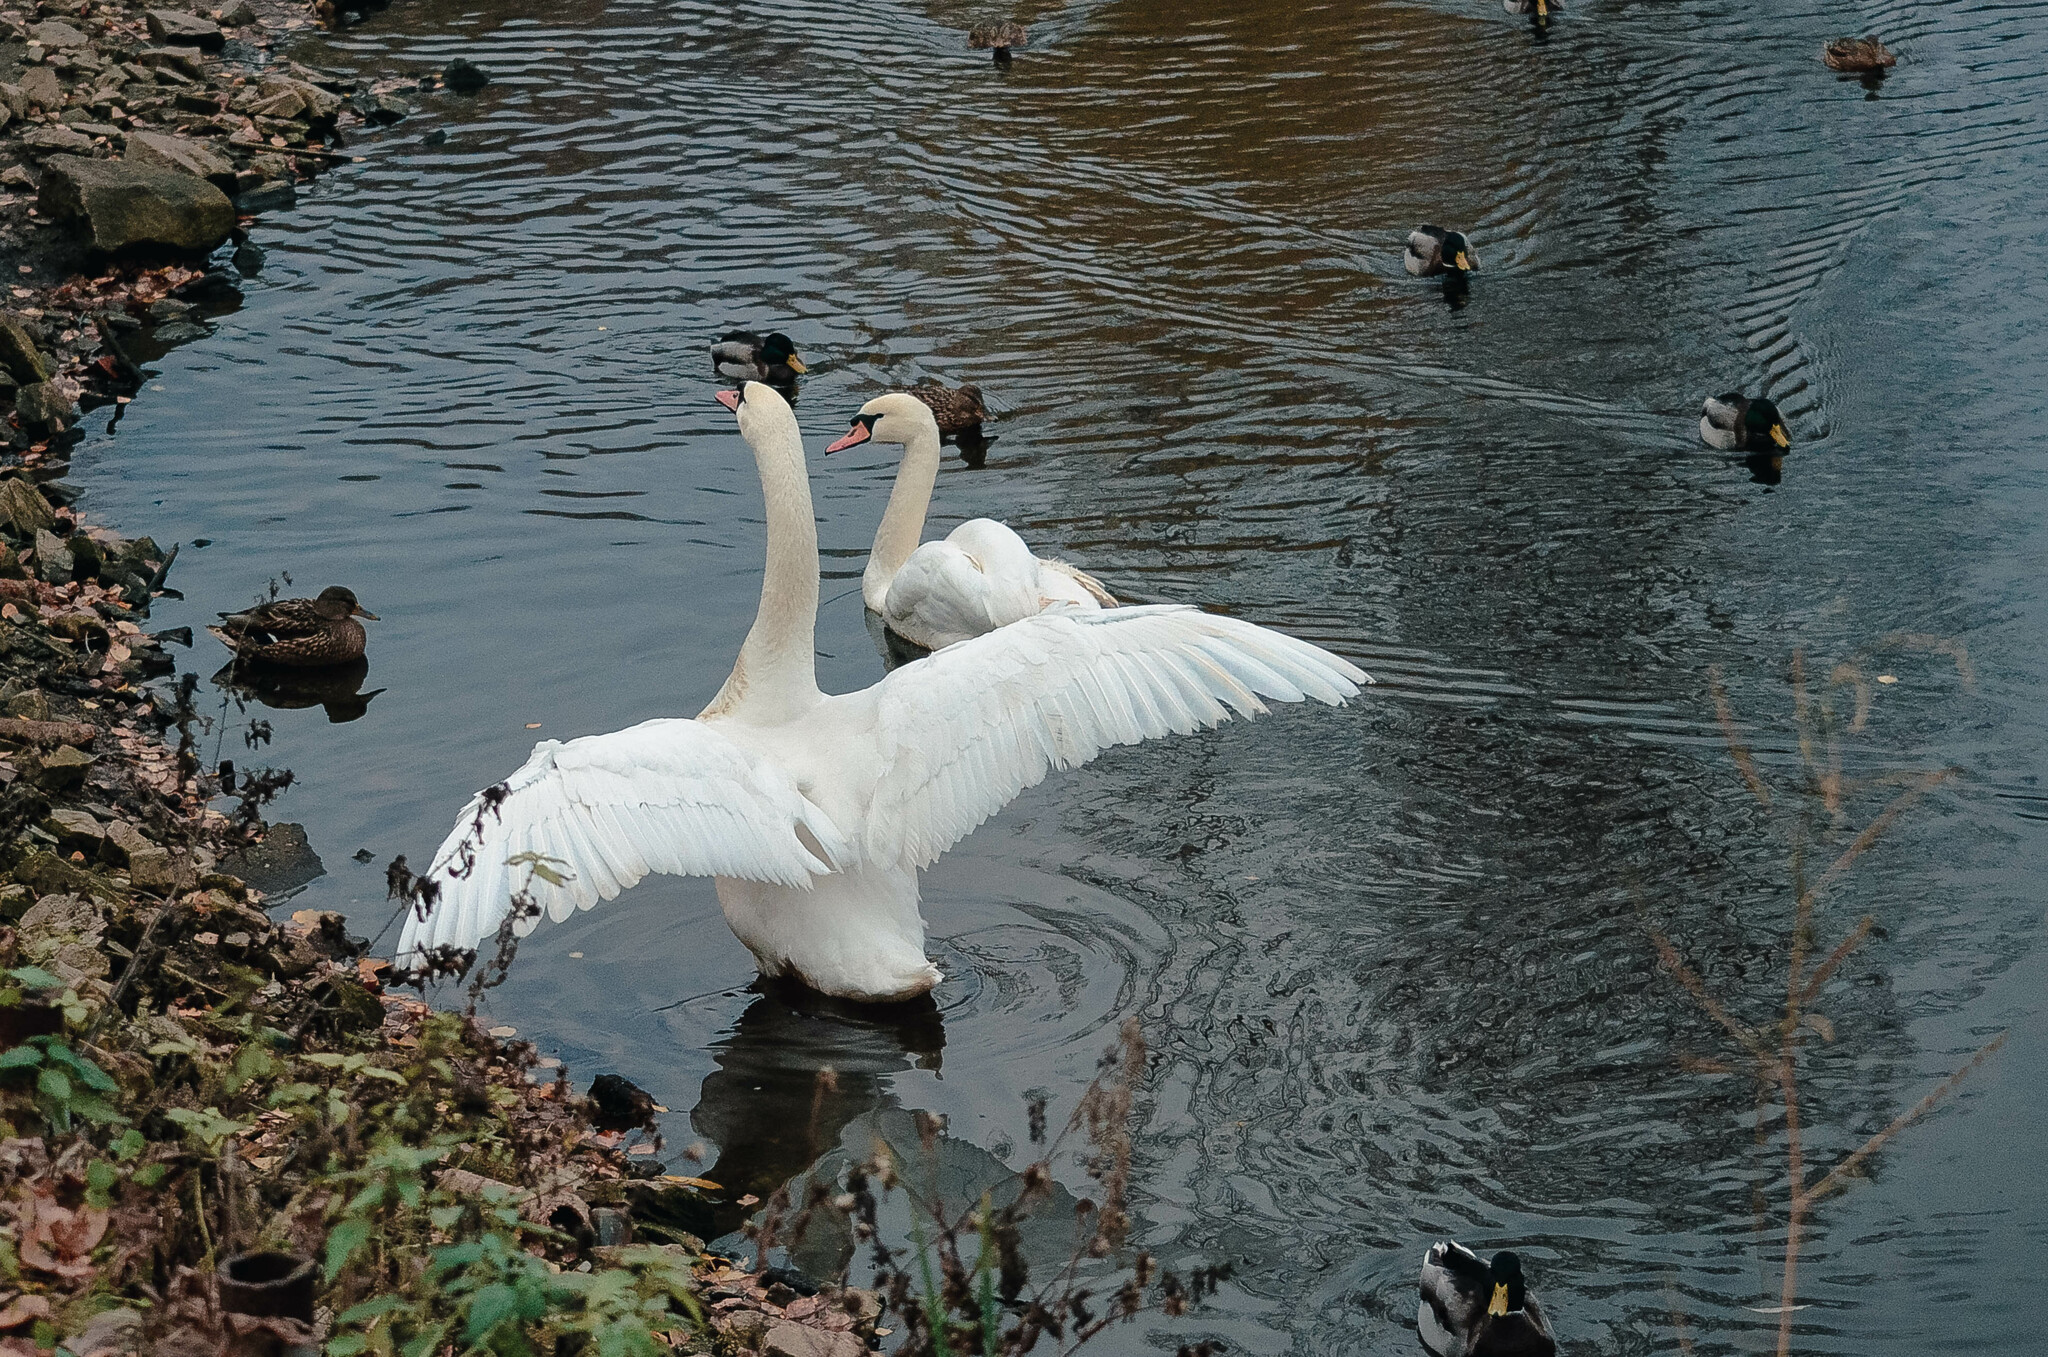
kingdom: Animalia
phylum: Chordata
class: Aves
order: Anseriformes
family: Anatidae
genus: Cygnus
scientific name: Cygnus olor
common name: Mute swan
